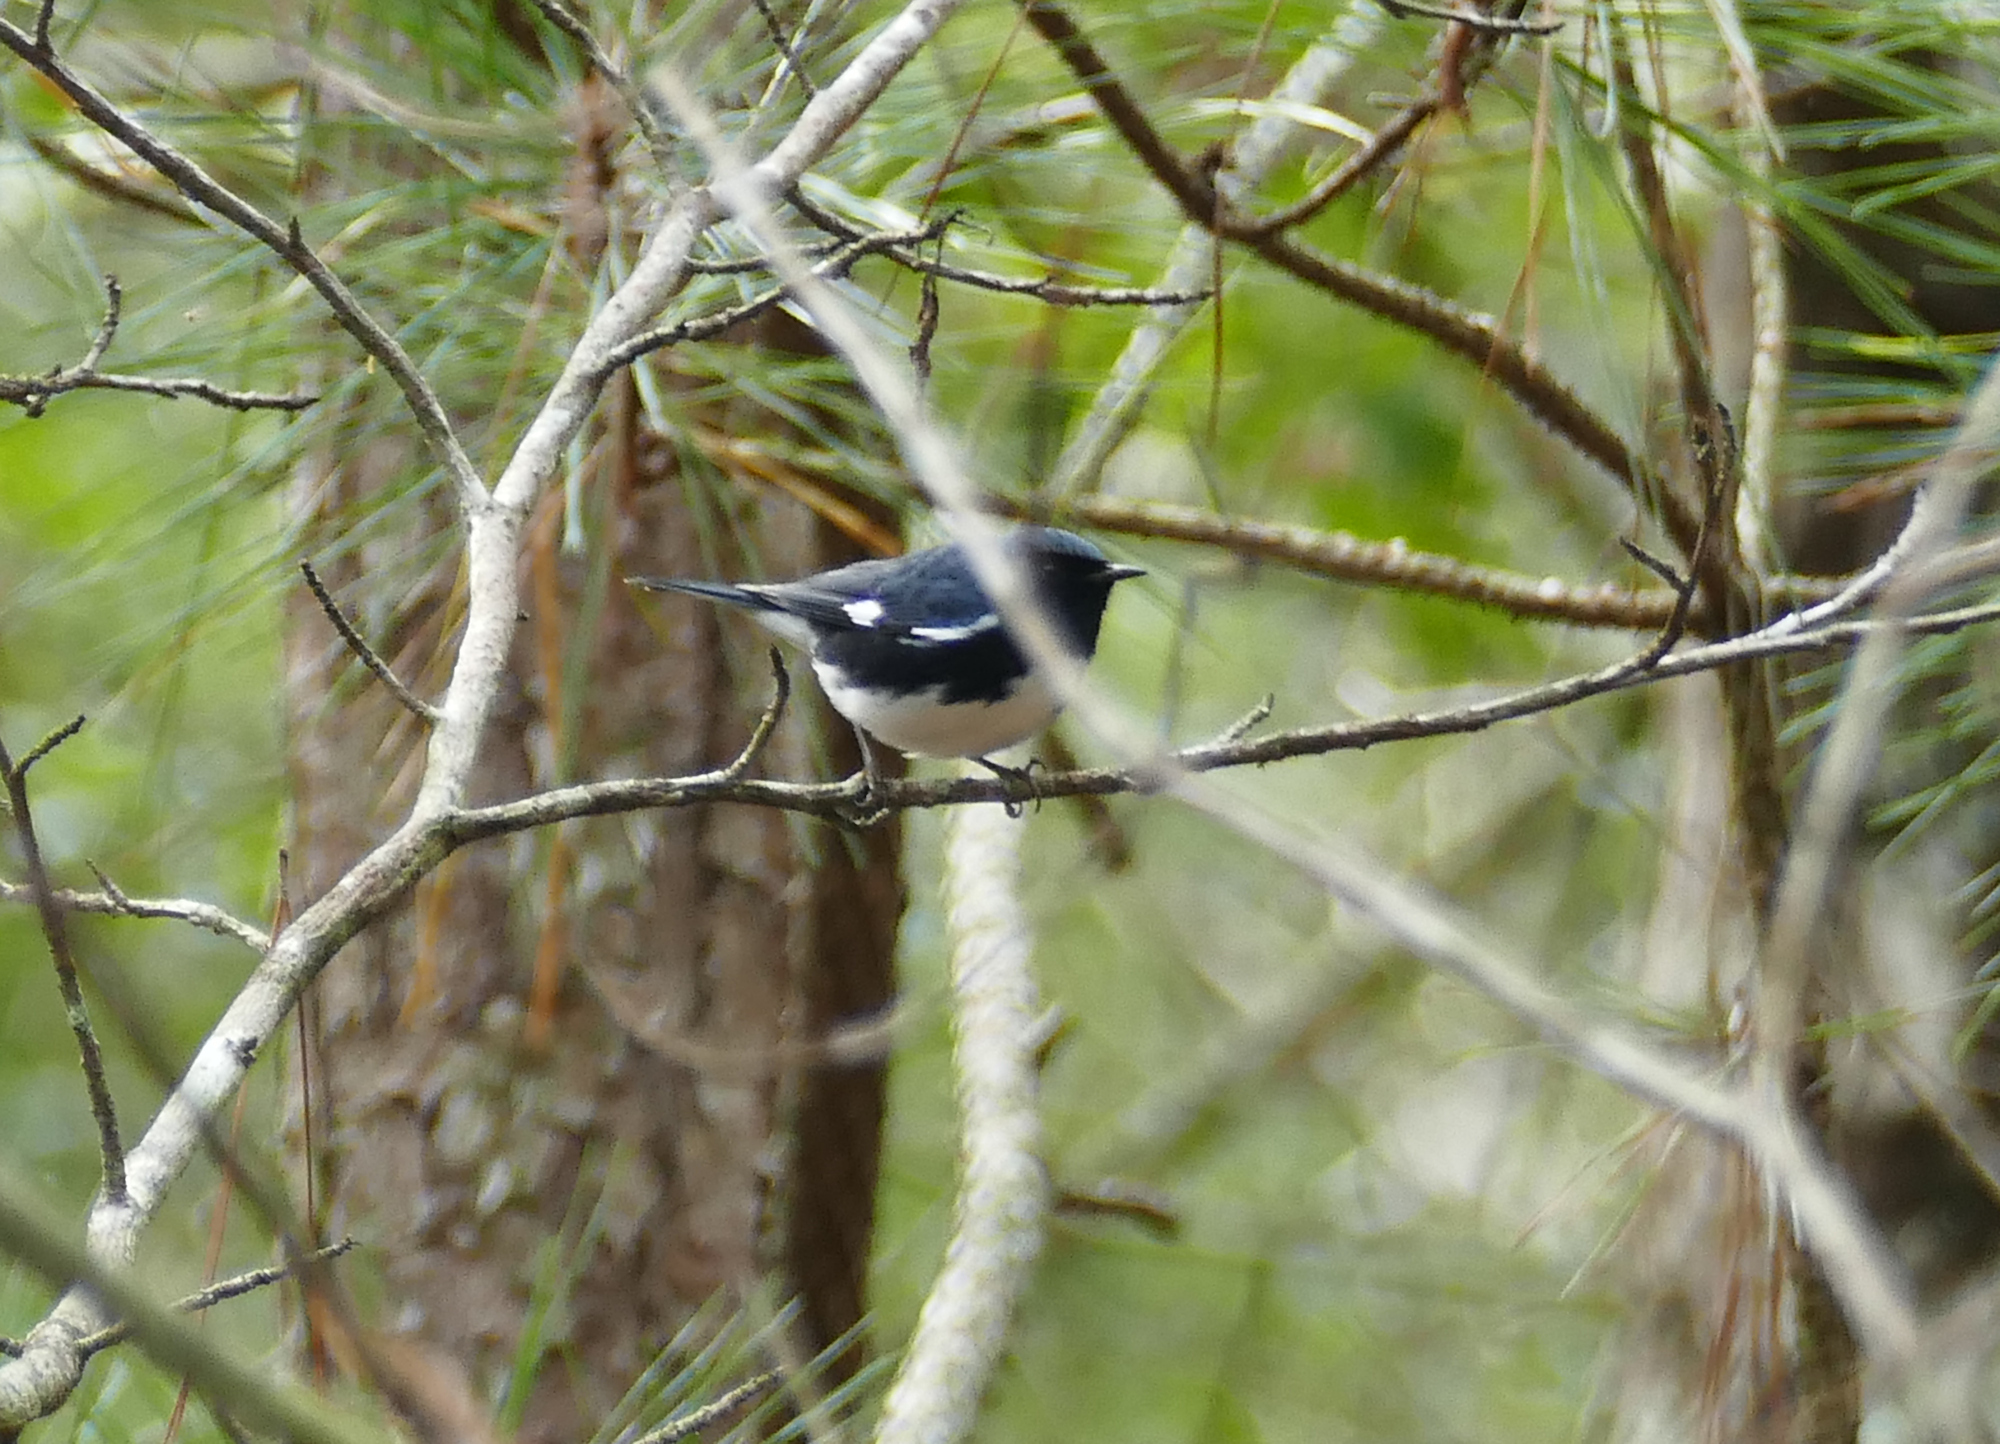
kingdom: Animalia
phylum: Chordata
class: Aves
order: Passeriformes
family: Parulidae
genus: Setophaga
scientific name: Setophaga caerulescens
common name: Black-throated blue warbler
